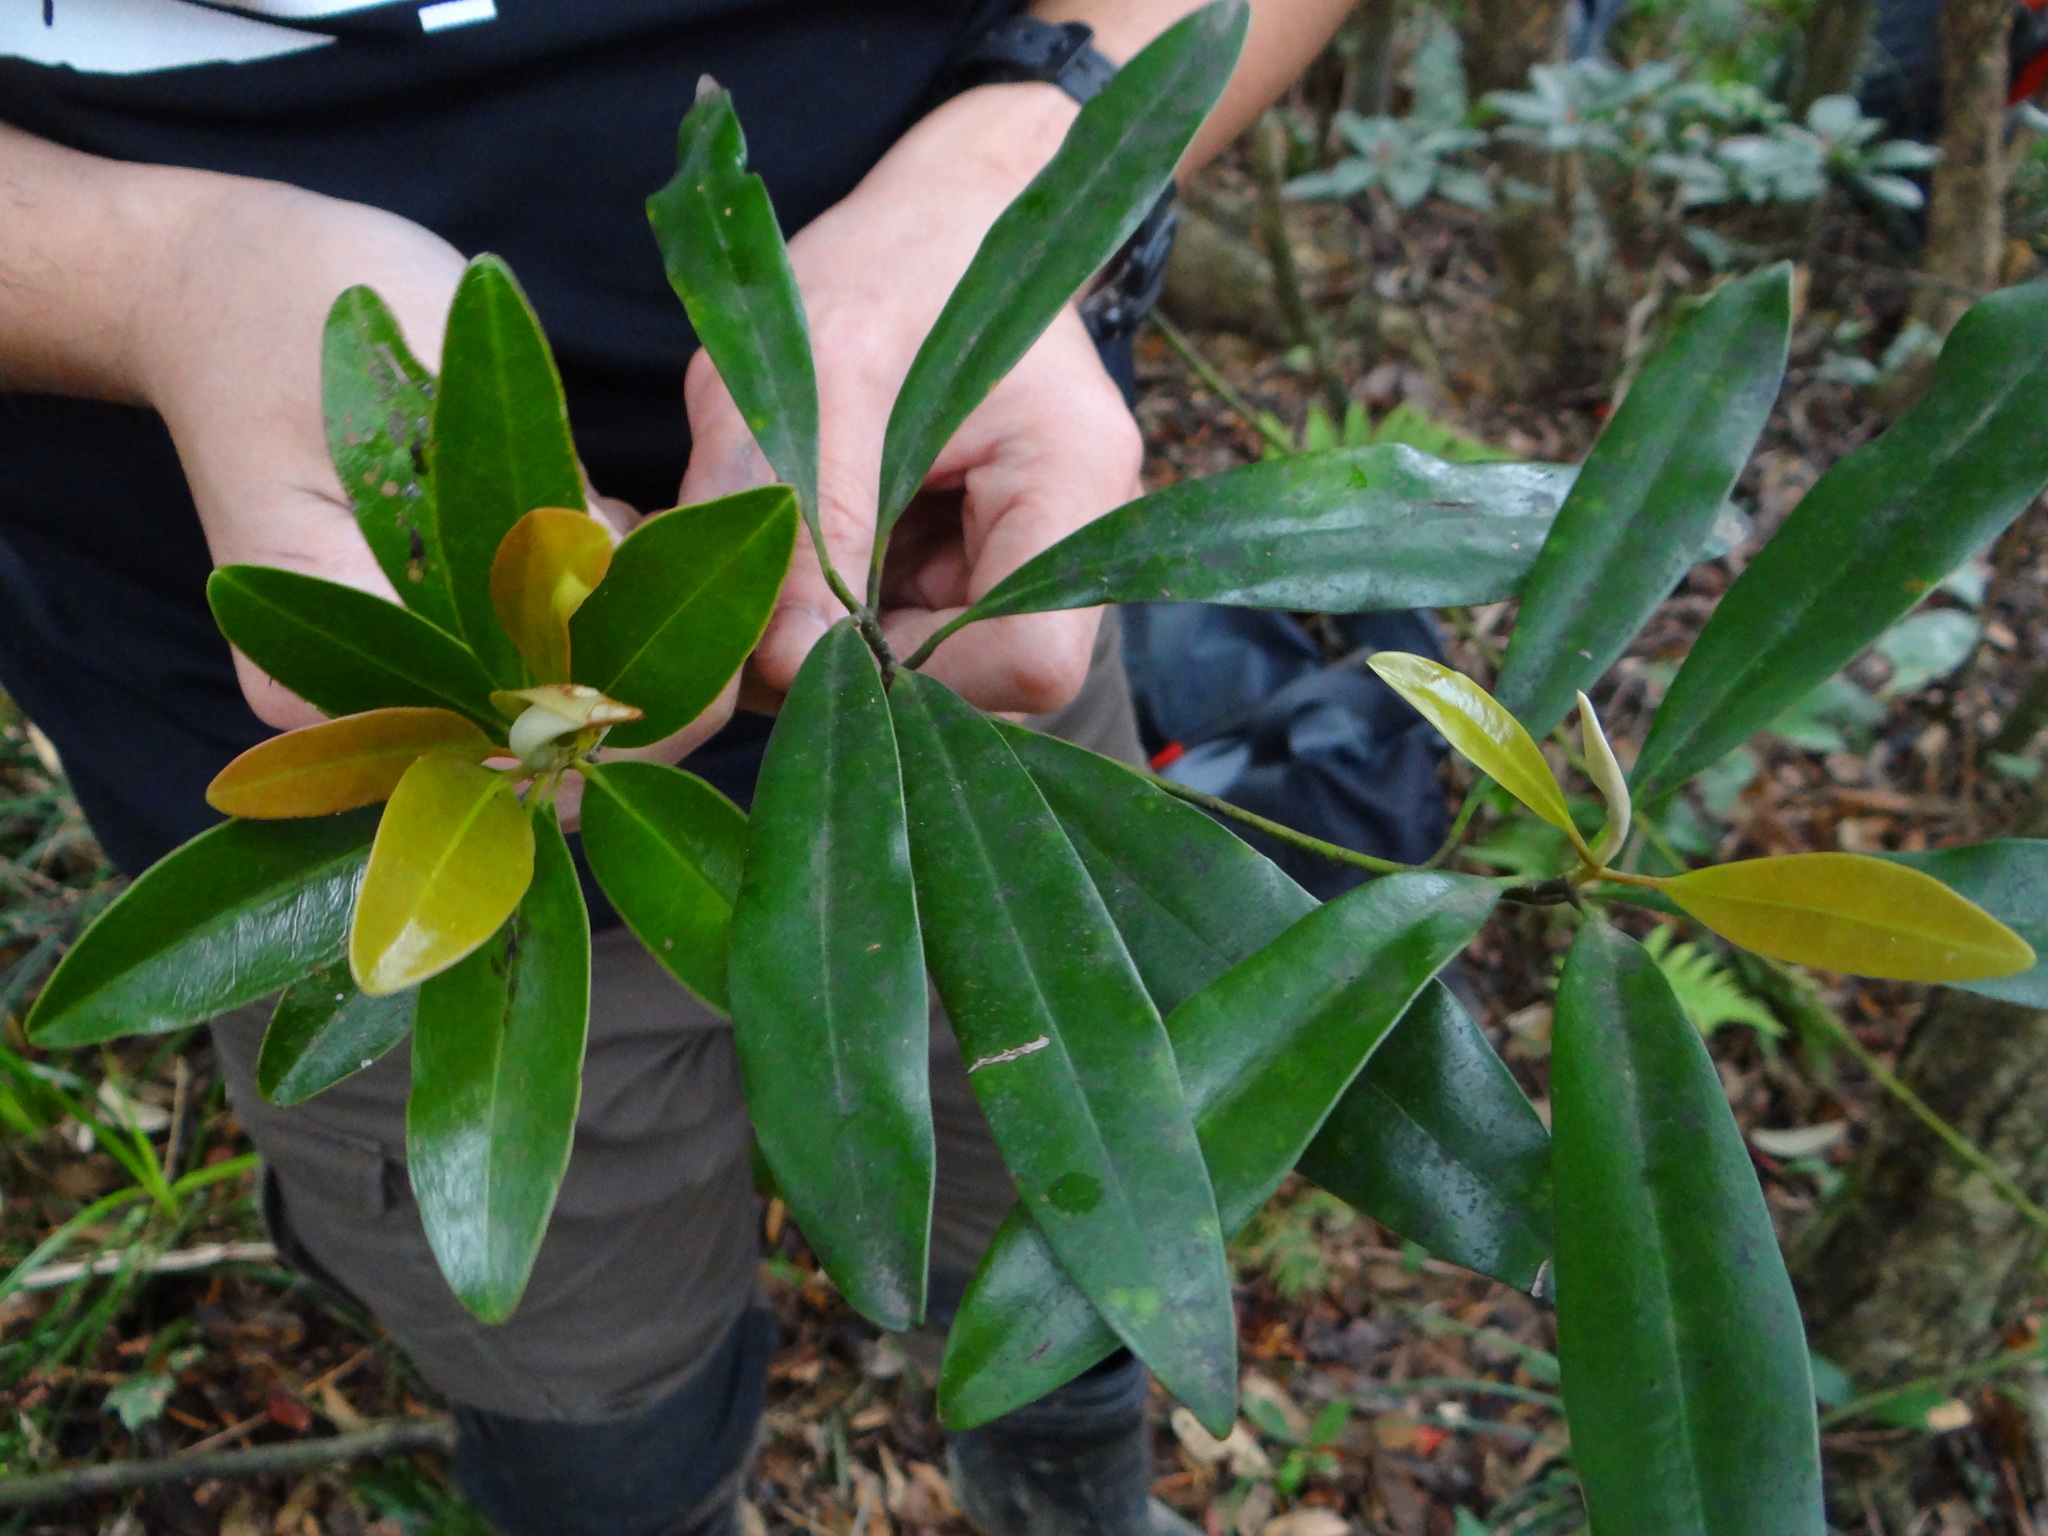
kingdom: Plantae
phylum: Tracheophyta
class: Magnoliopsida
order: Magnoliales
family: Magnoliaceae
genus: Magnolia
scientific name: Magnolia kachirachirai
